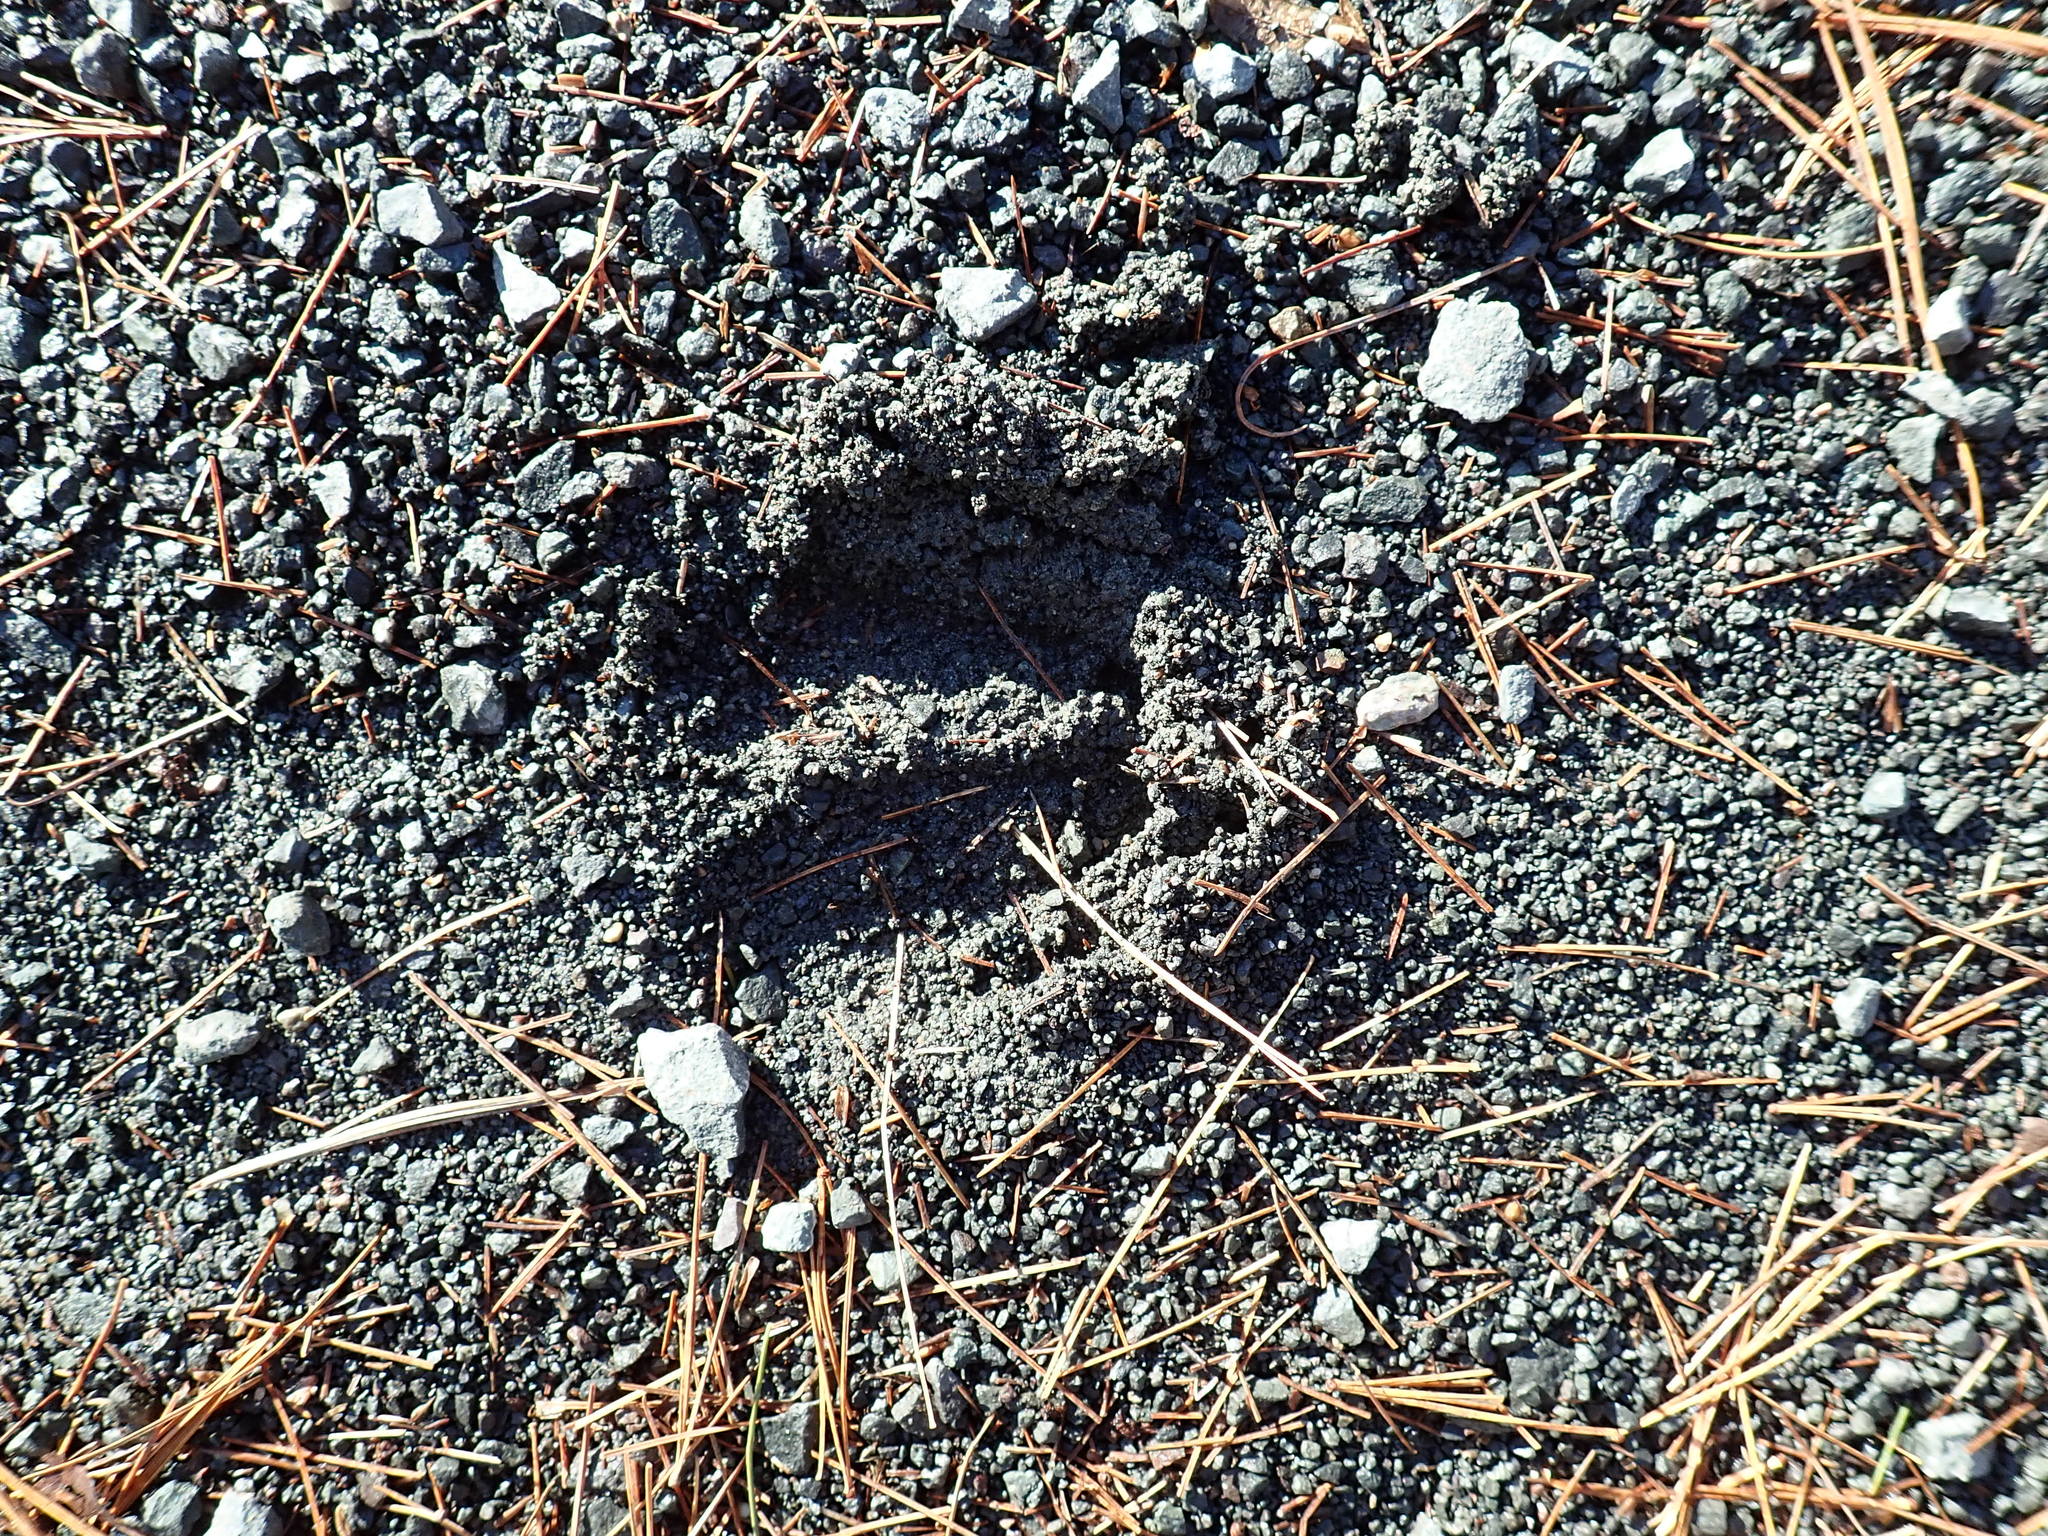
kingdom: Animalia
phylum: Chordata
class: Mammalia
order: Artiodactyla
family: Cervidae
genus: Odocoileus
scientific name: Odocoileus virginianus
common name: White-tailed deer
